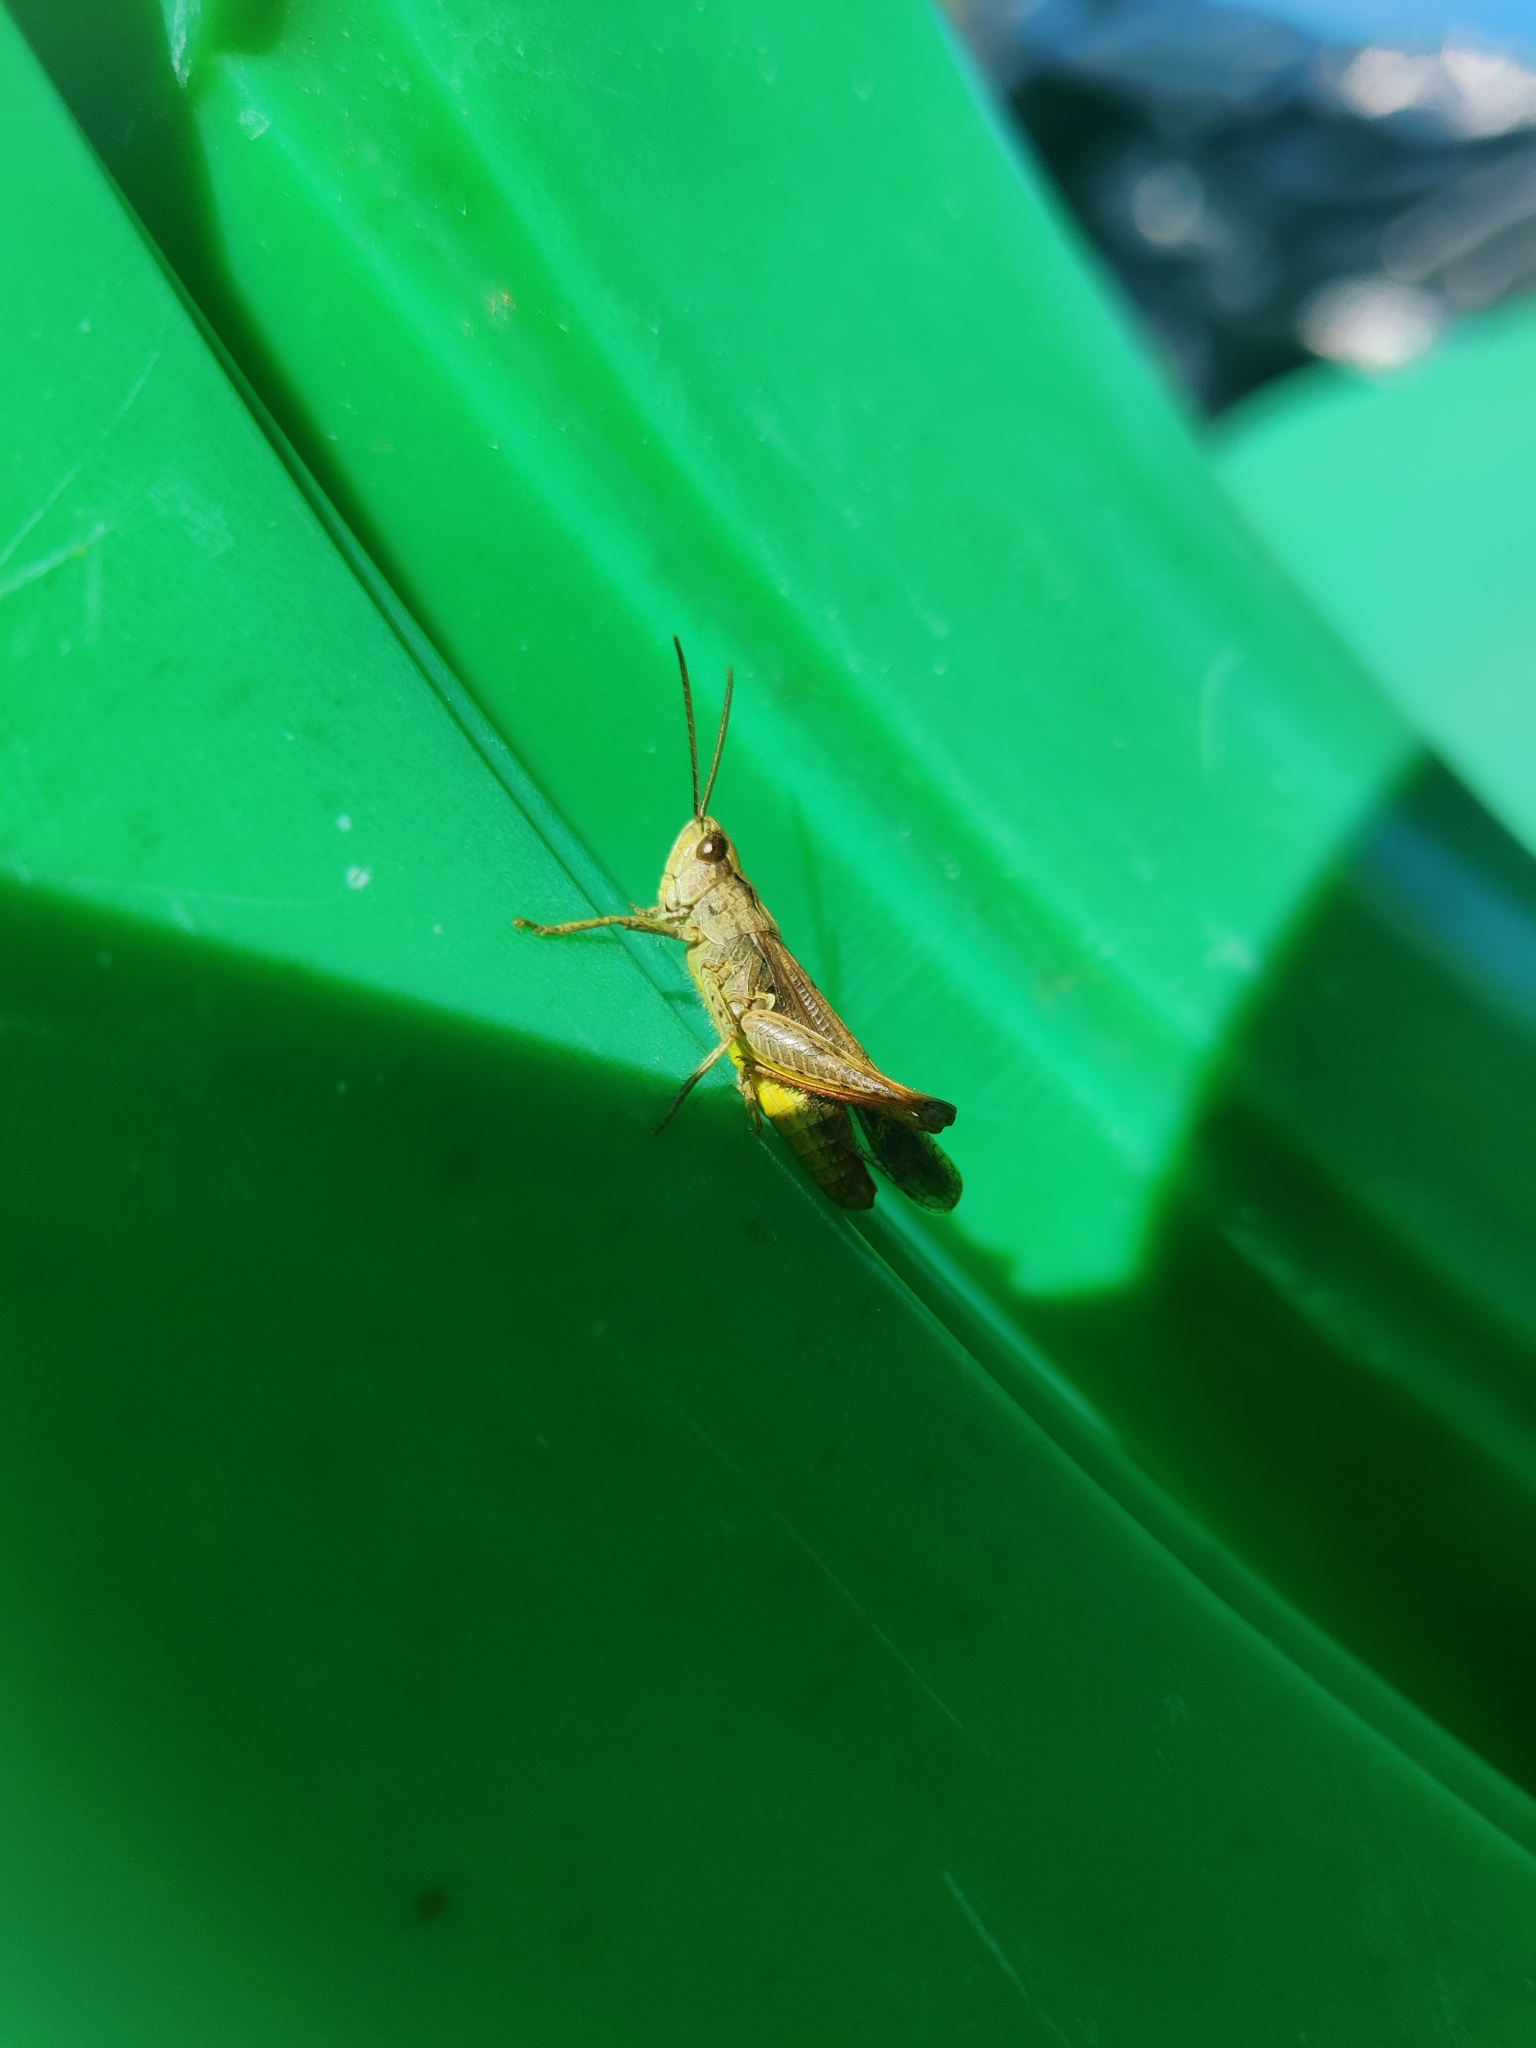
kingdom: Animalia
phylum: Arthropoda
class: Insecta
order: Orthoptera
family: Acrididae
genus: Chorthippus
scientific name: Chorthippus biguttulus
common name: Bow-winged grasshopper
